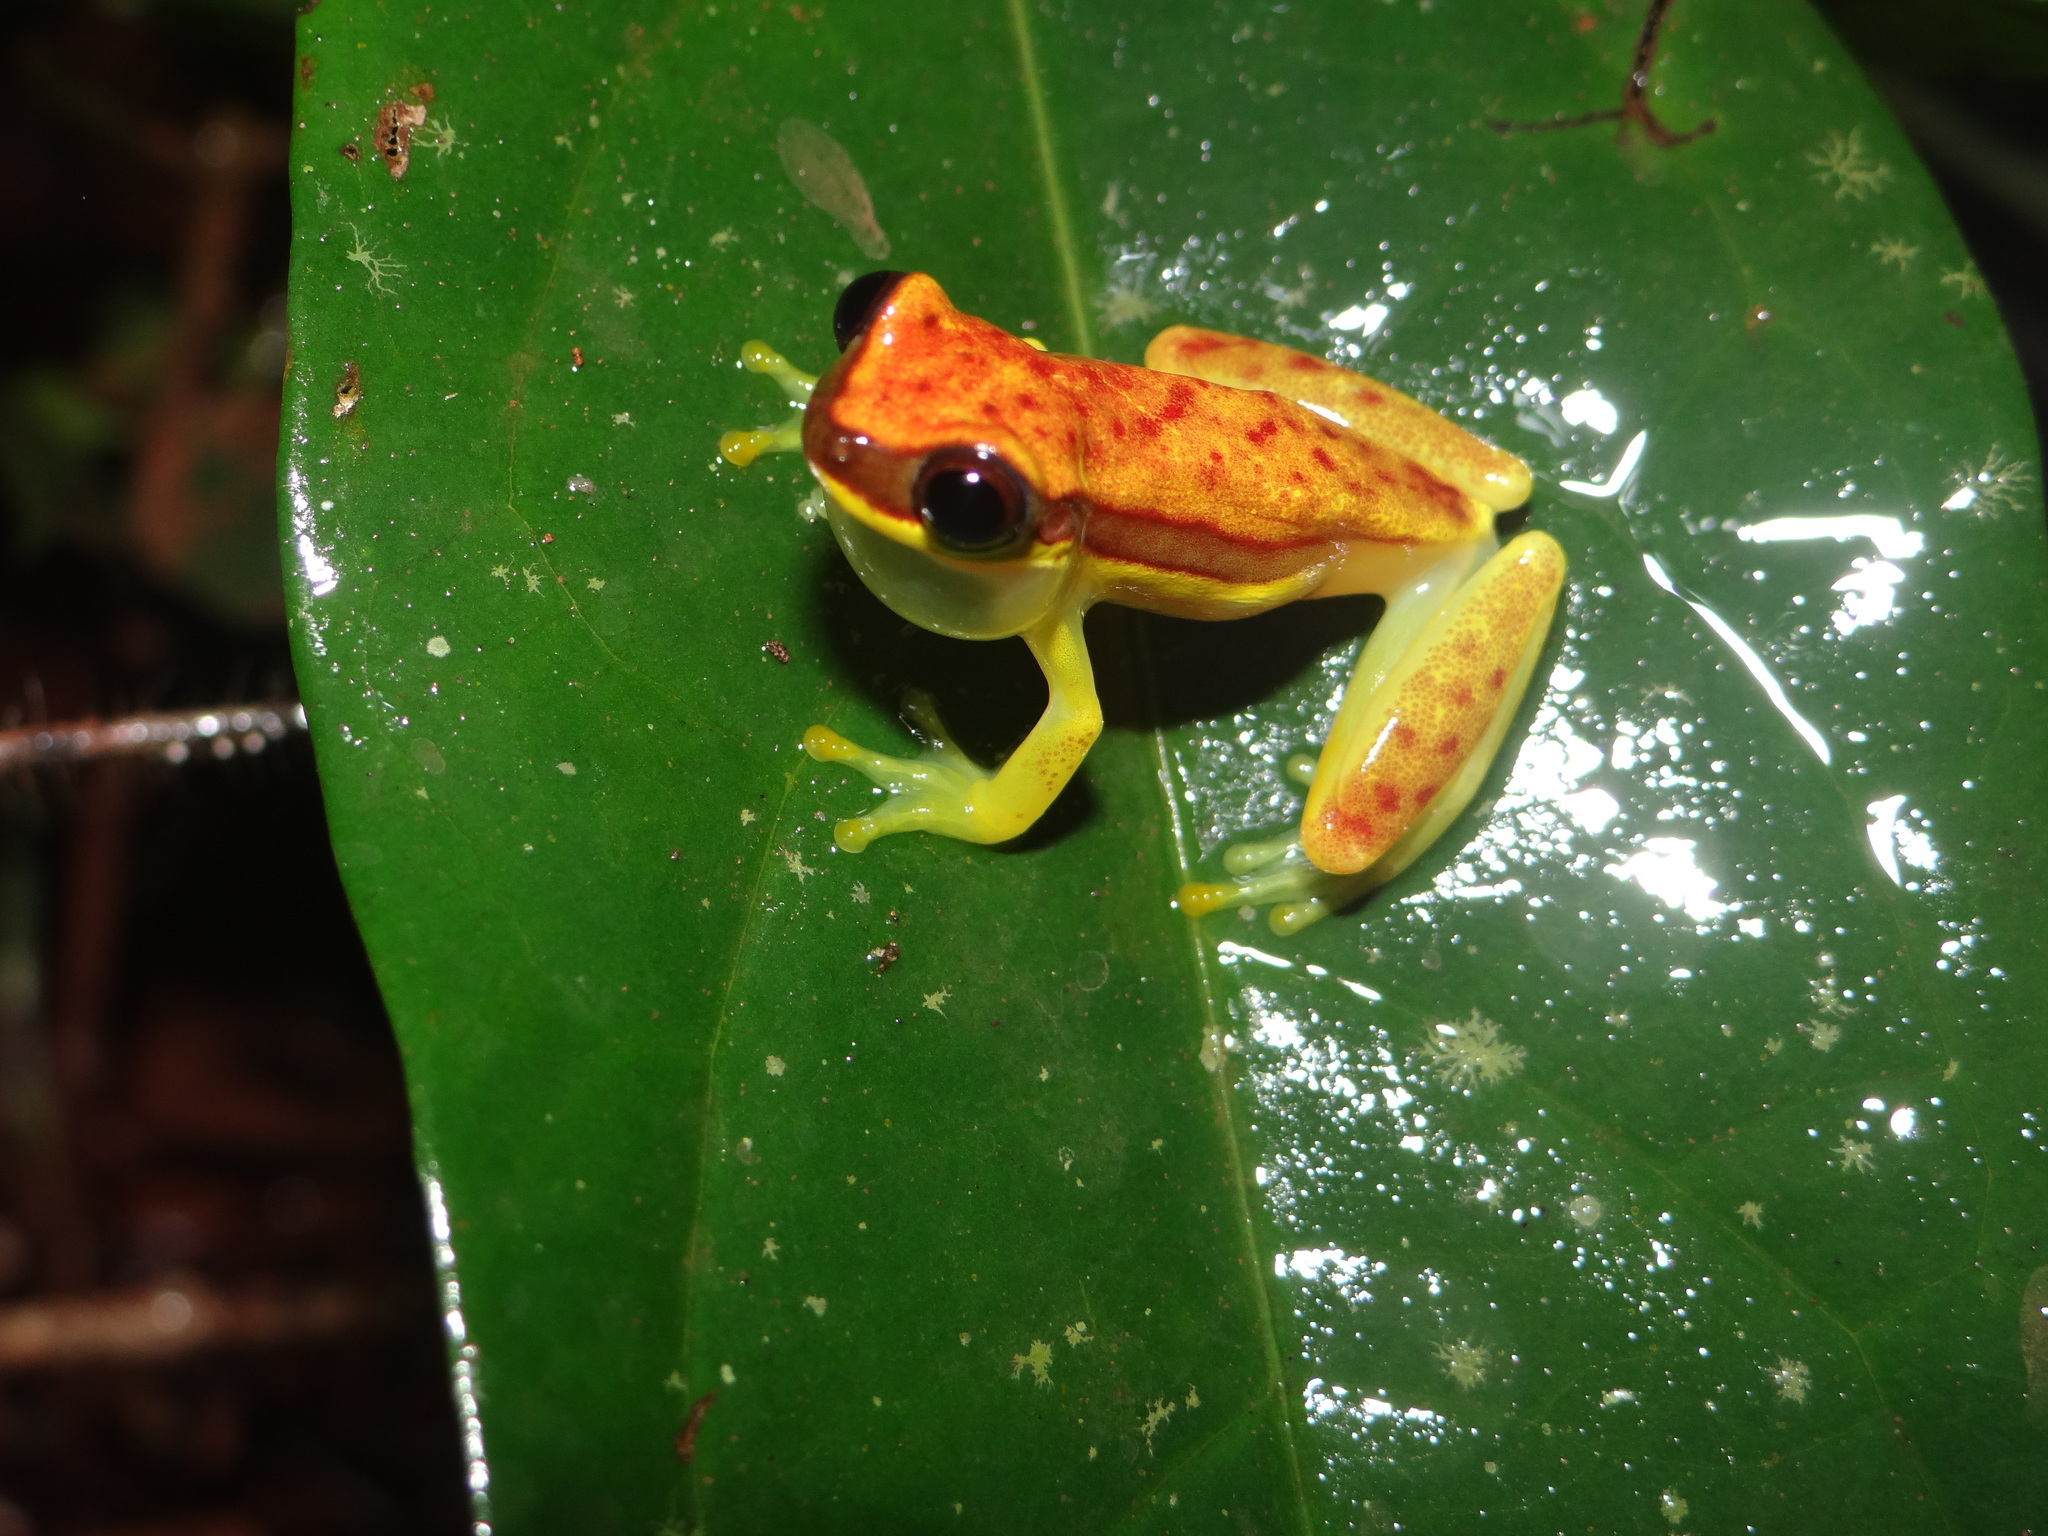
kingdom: Animalia
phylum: Chordata
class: Amphibia
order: Anura
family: Hylidae
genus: Dendropsophus
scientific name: Dendropsophus rhodopeplus
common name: Red-skirted treefrog
